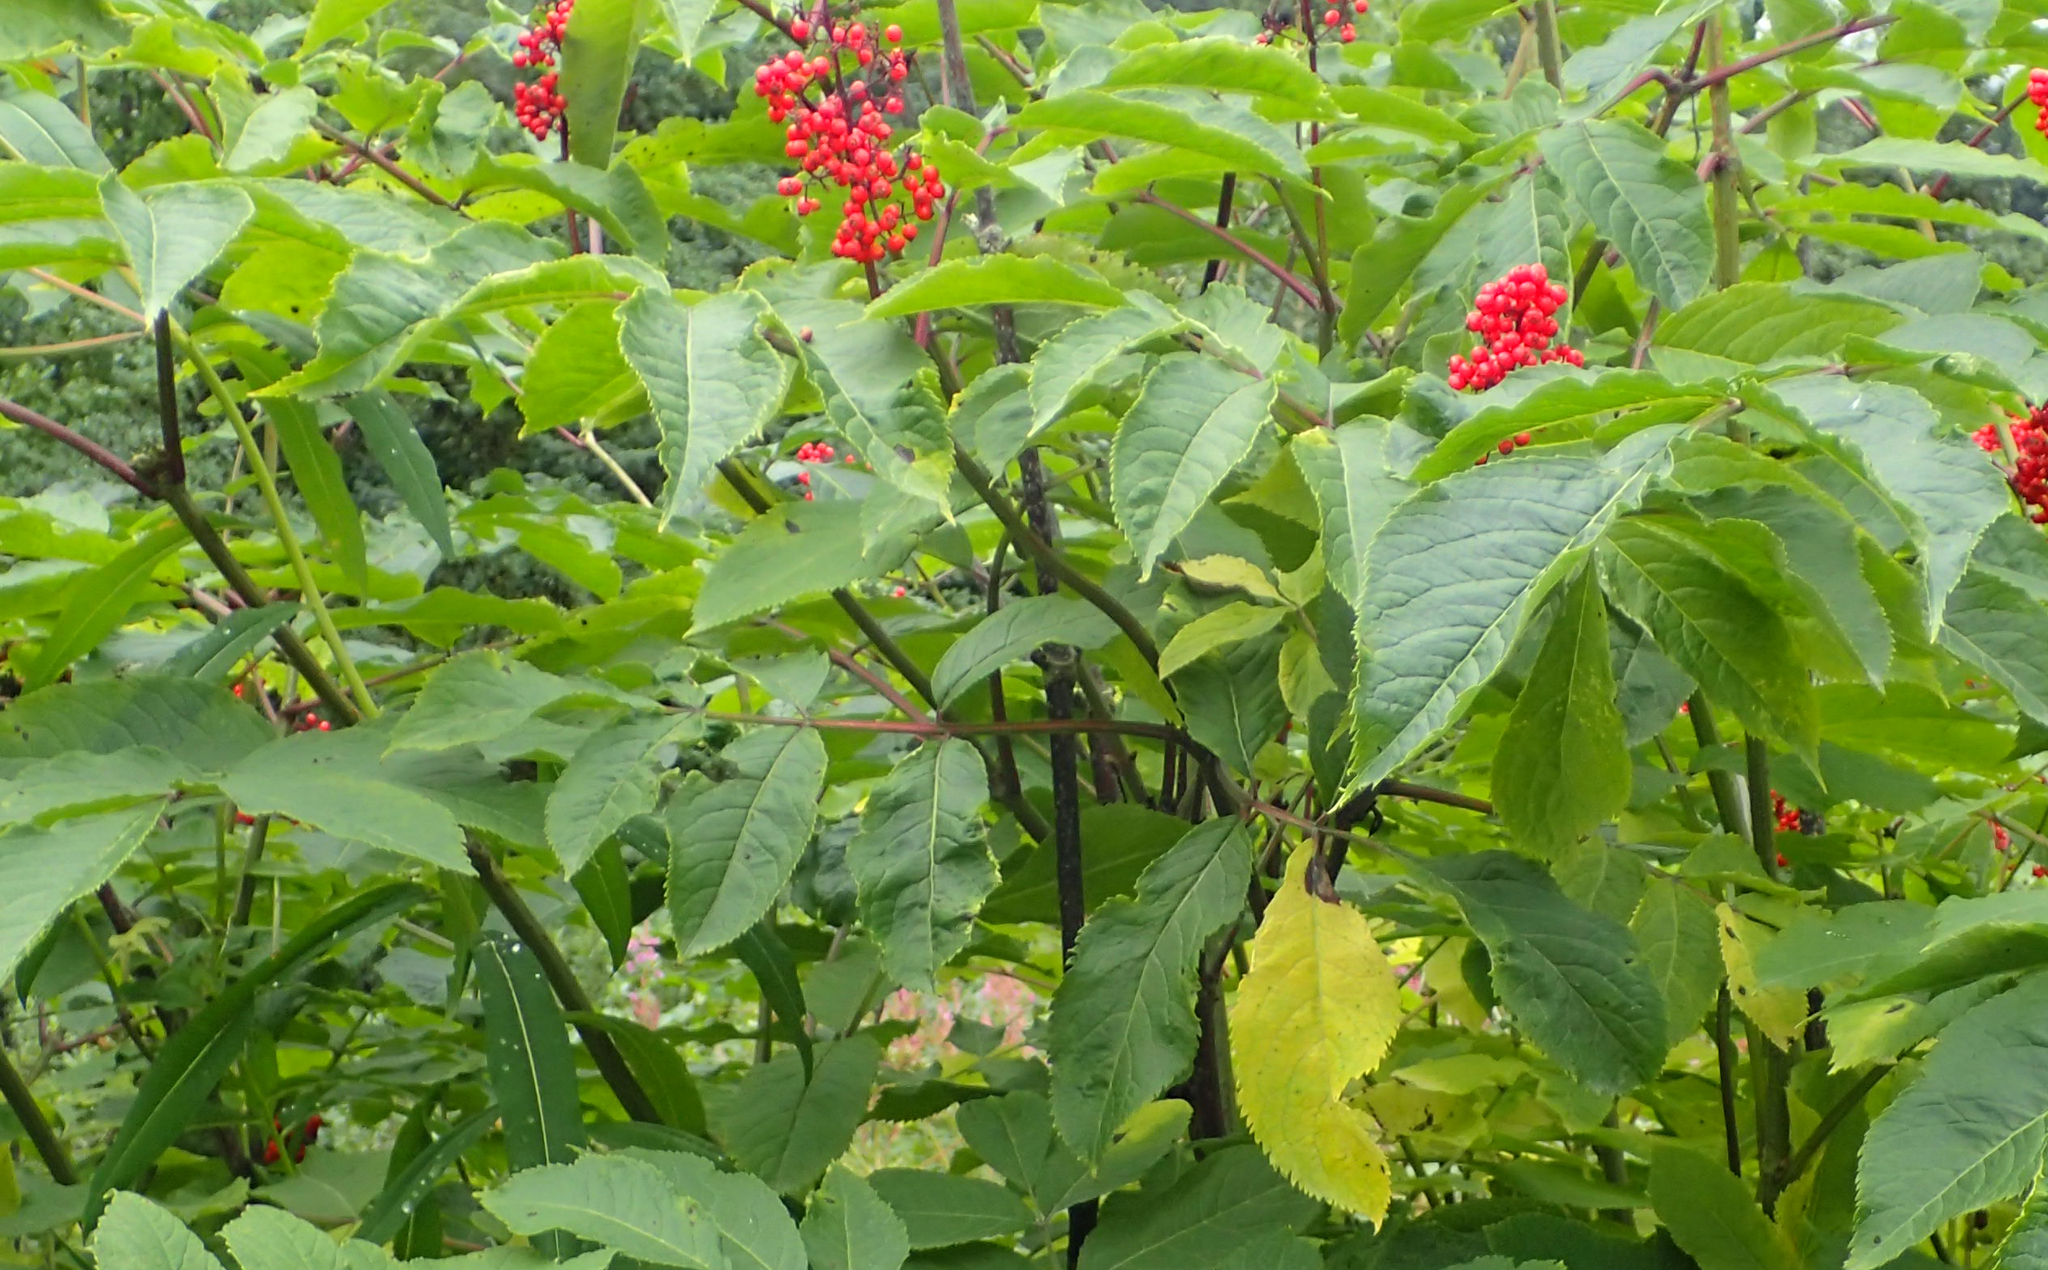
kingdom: Plantae
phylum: Tracheophyta
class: Magnoliopsida
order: Dipsacales
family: Viburnaceae
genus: Sambucus
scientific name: Sambucus racemosa
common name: Red-berried elder
